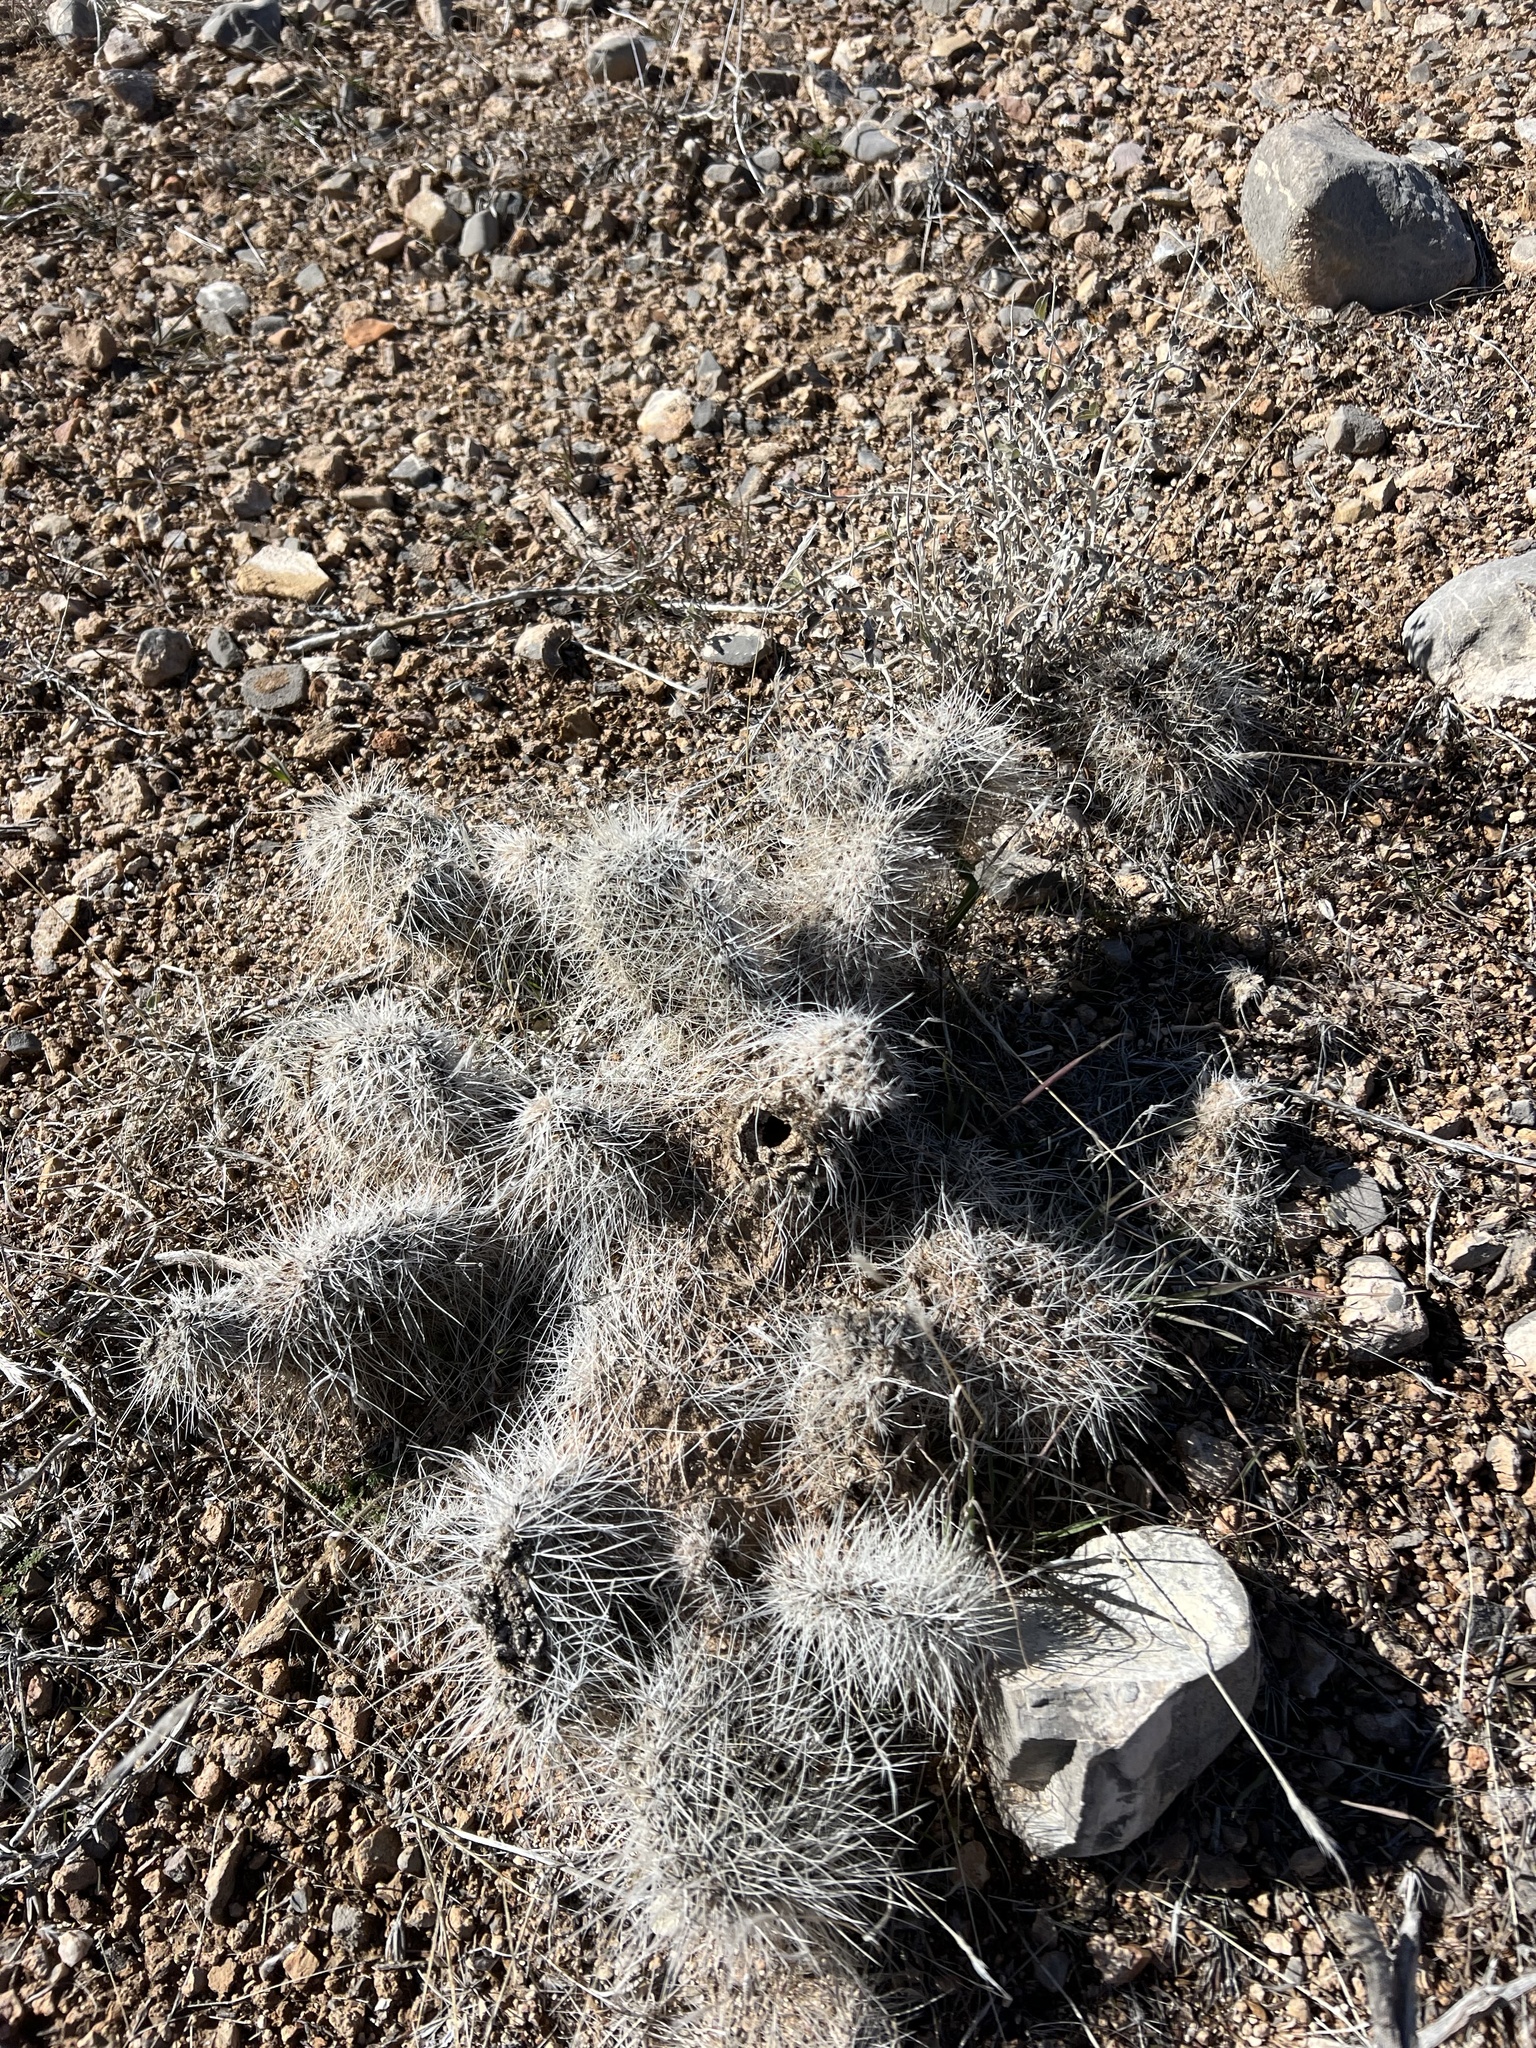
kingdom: Plantae
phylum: Tracheophyta
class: Magnoliopsida
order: Caryophyllales
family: Cactaceae
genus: Opuntia
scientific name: Opuntia polyacantha
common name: Plains prickly-pear
